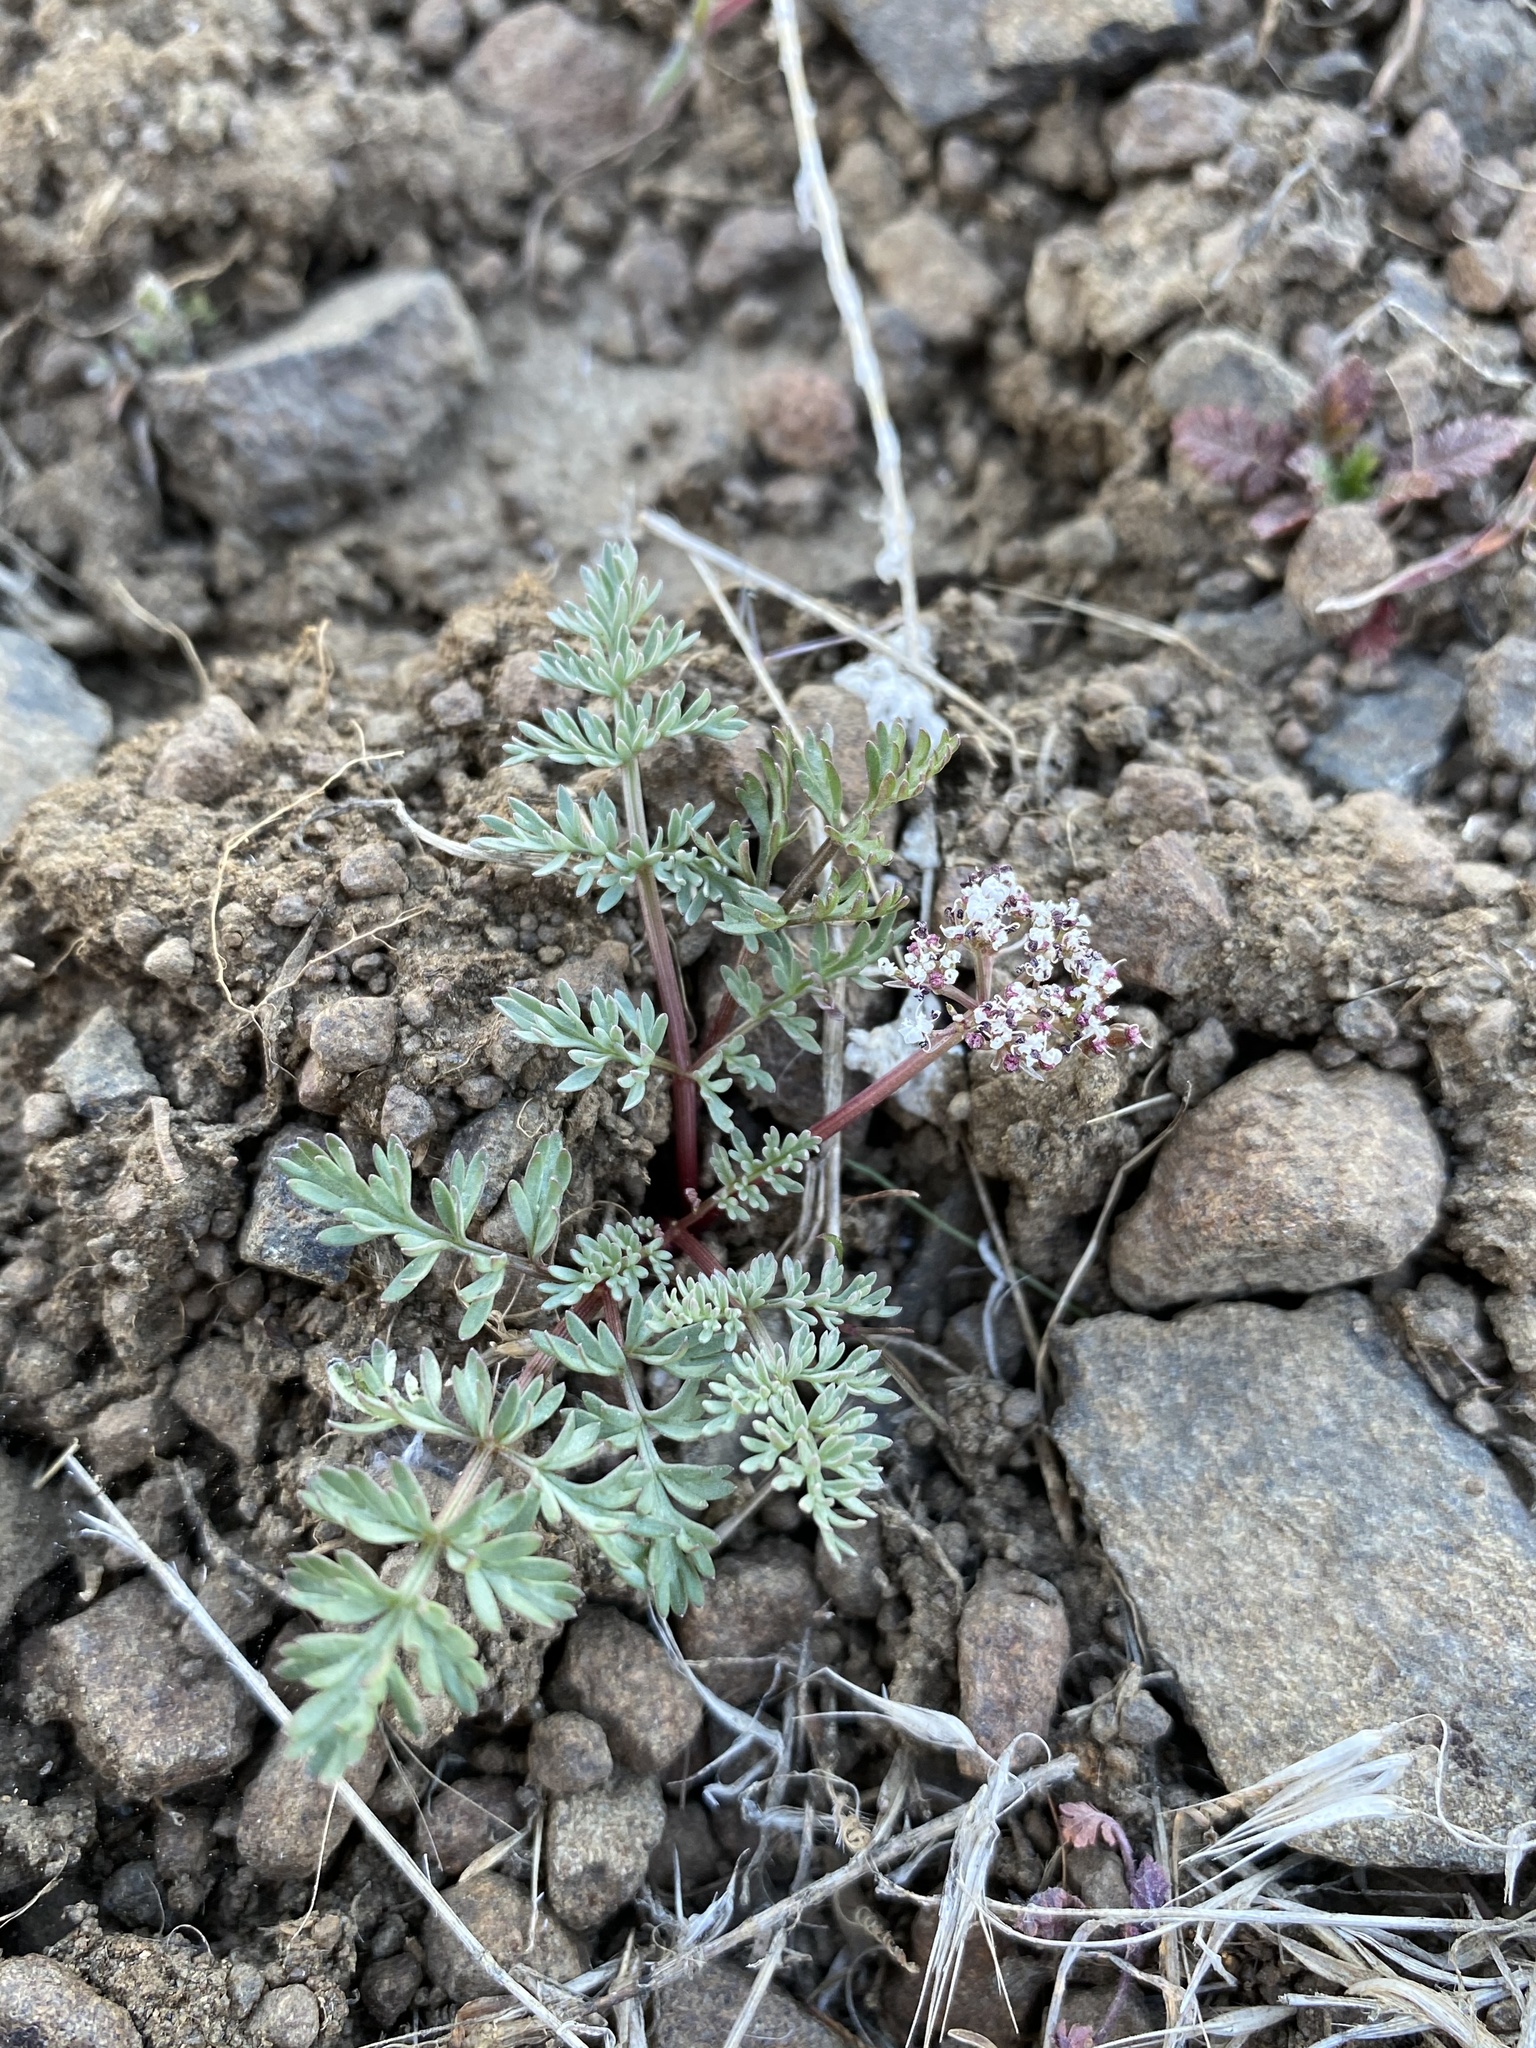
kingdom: Plantae
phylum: Tracheophyta
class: Magnoliopsida
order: Apiales
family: Apiaceae
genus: Lomatium
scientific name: Lomatium canbyi
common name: Chucklusa
